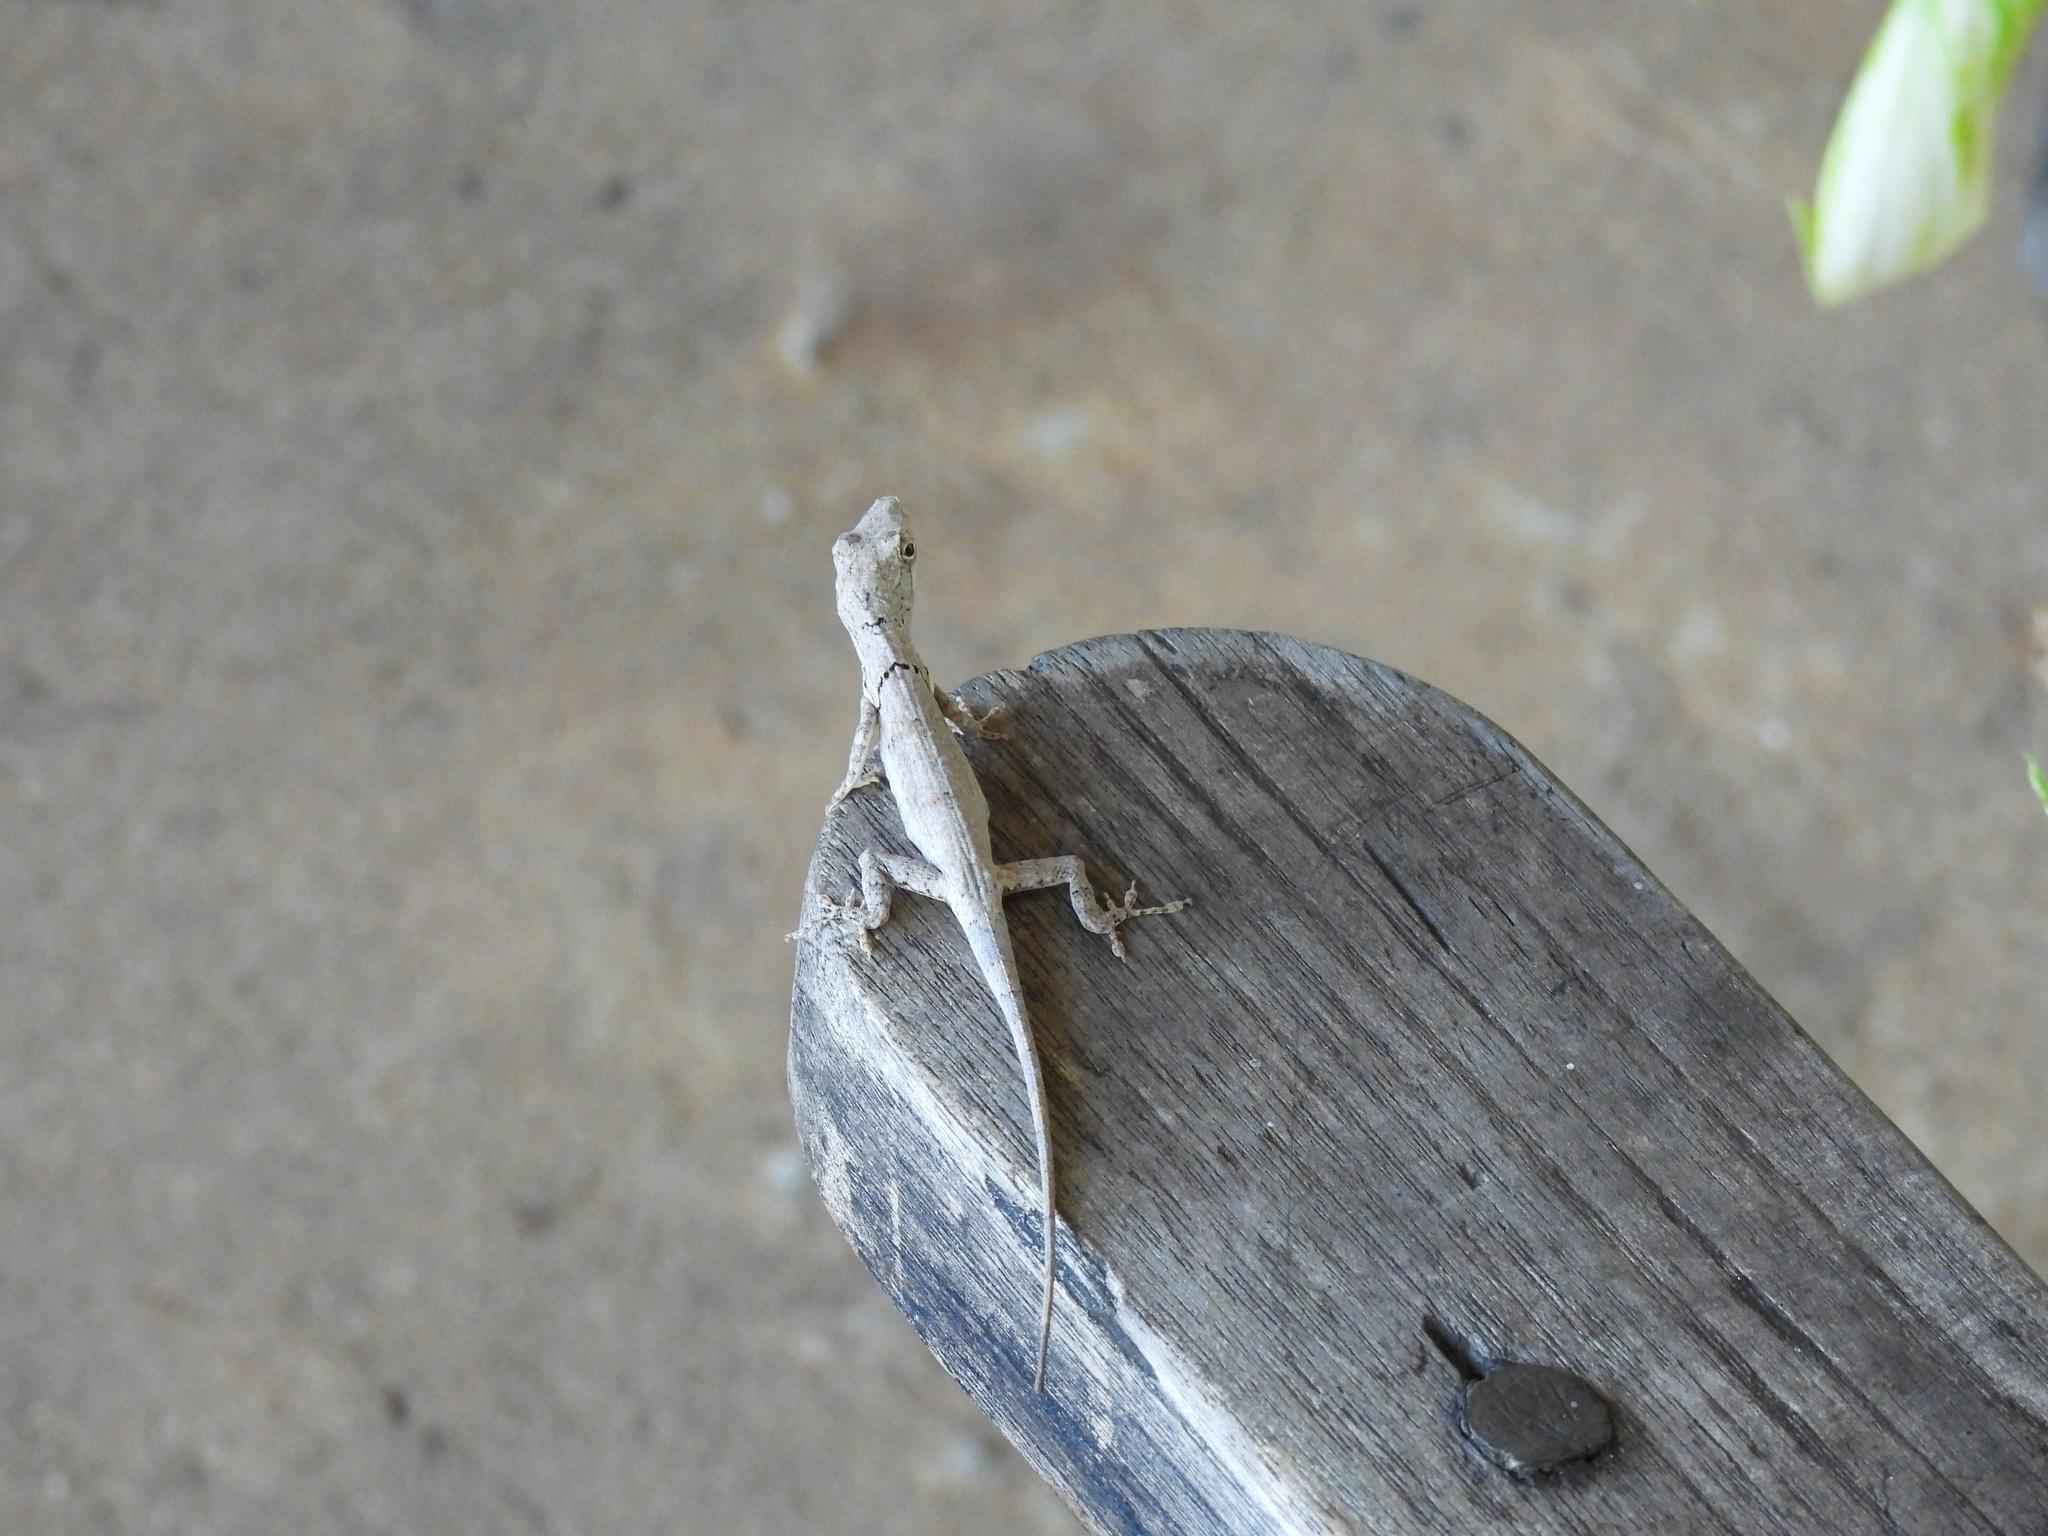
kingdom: Animalia
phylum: Chordata
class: Squamata
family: Dactyloidae
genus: Anolis
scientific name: Anolis valencienni
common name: Jamaican twig anole
